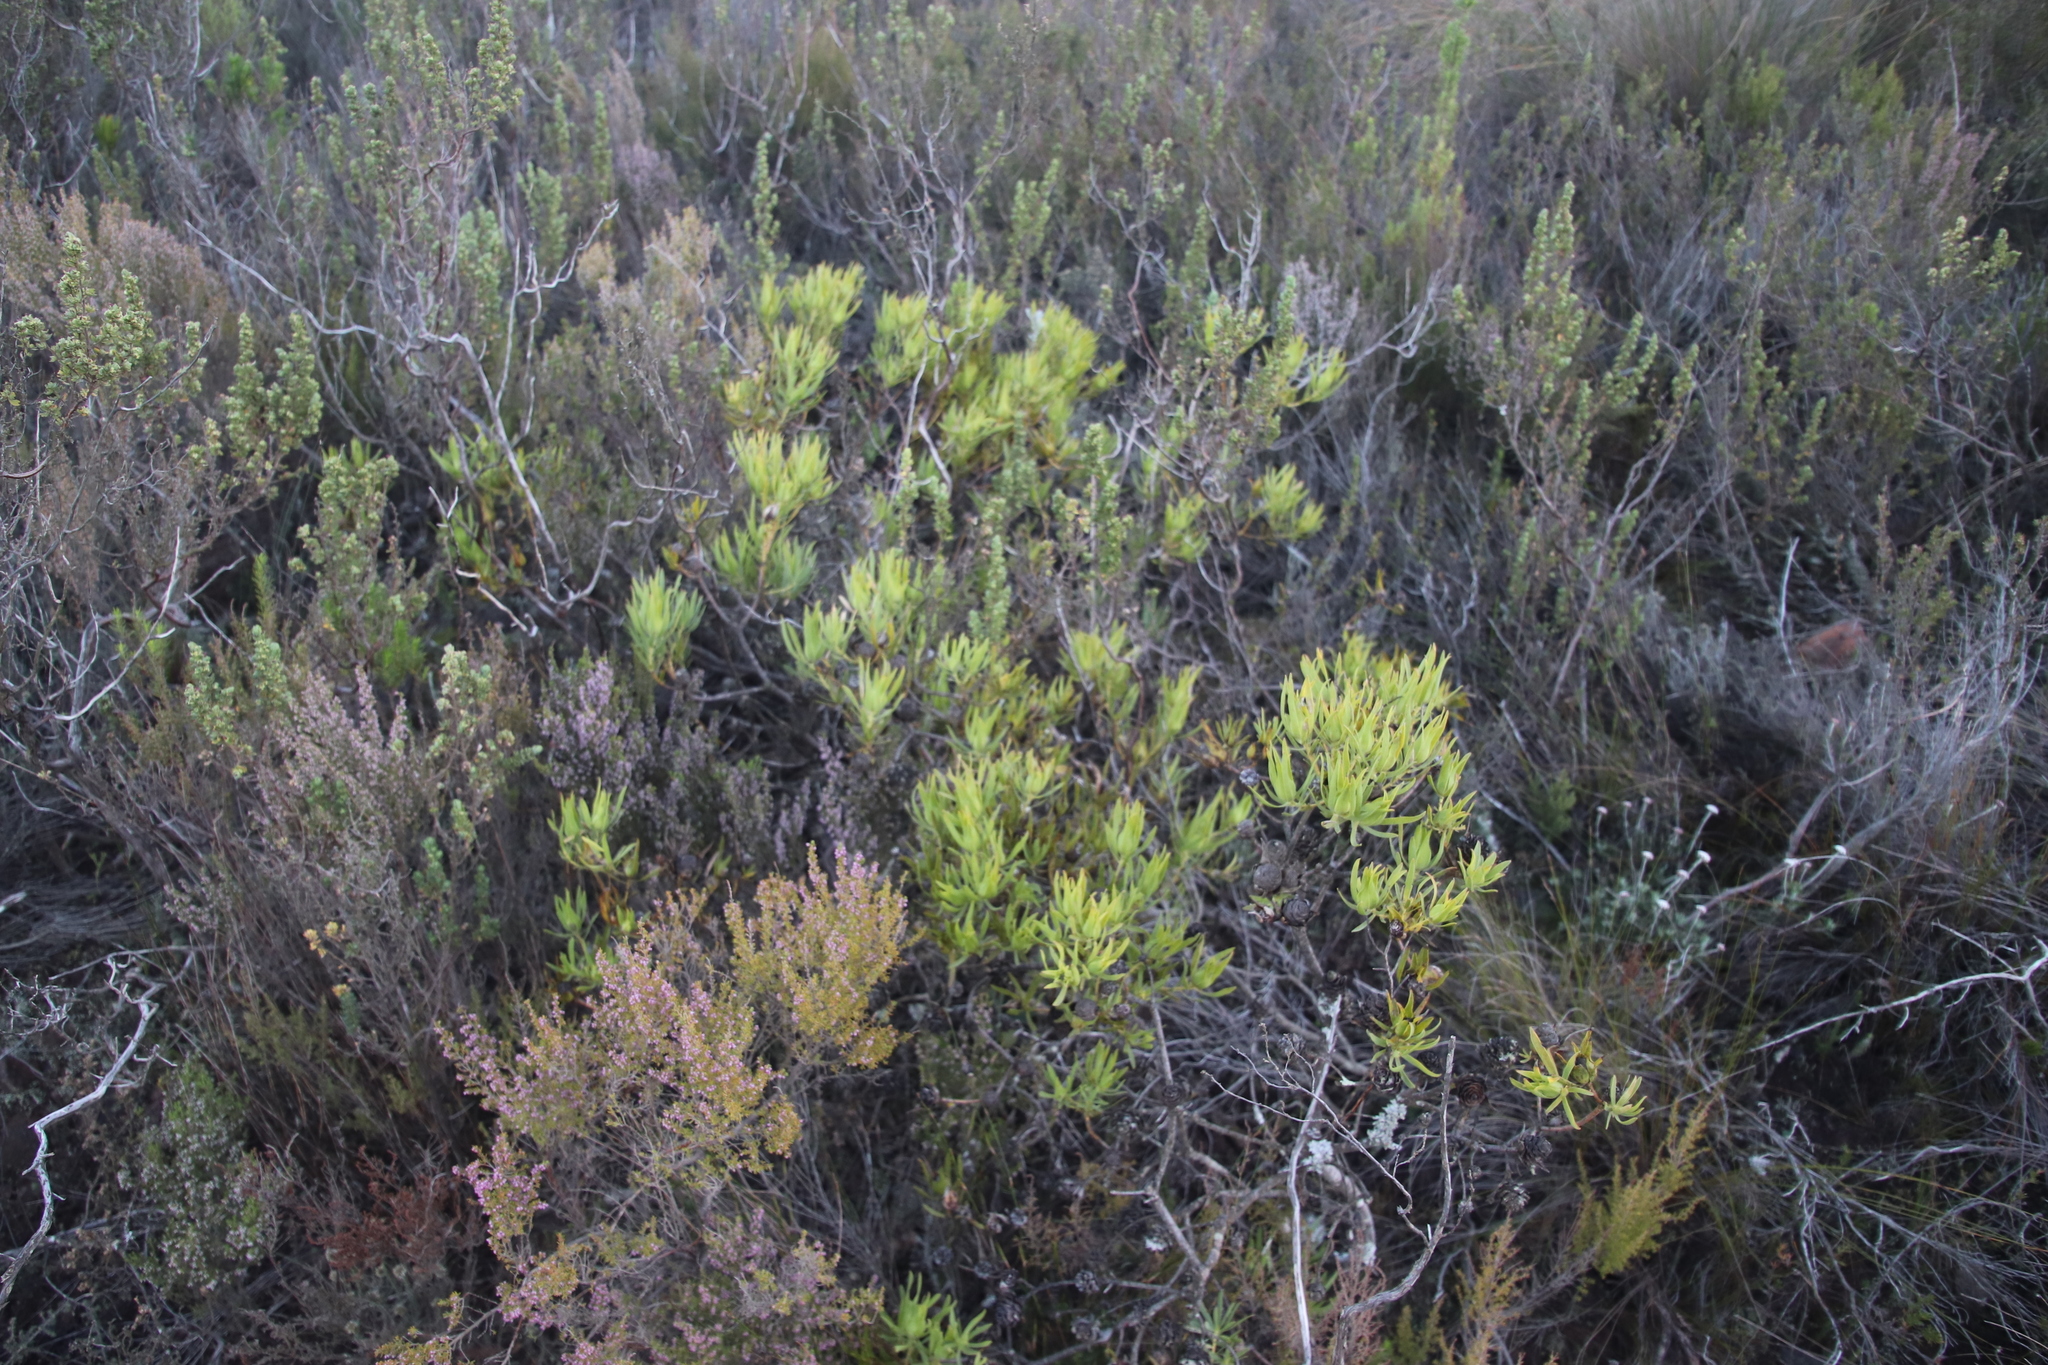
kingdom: Plantae
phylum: Tracheophyta
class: Magnoliopsida
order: Proteales
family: Proteaceae
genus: Leucadendron
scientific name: Leucadendron salignum
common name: Common sunshine conebush
